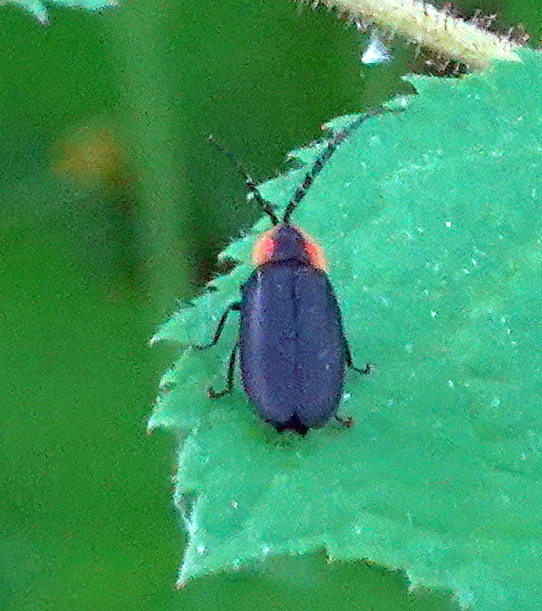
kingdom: Animalia
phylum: Arthropoda
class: Insecta
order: Coleoptera
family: Lampyridae
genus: Lucidota
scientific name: Lucidota atra
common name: Black firefly
